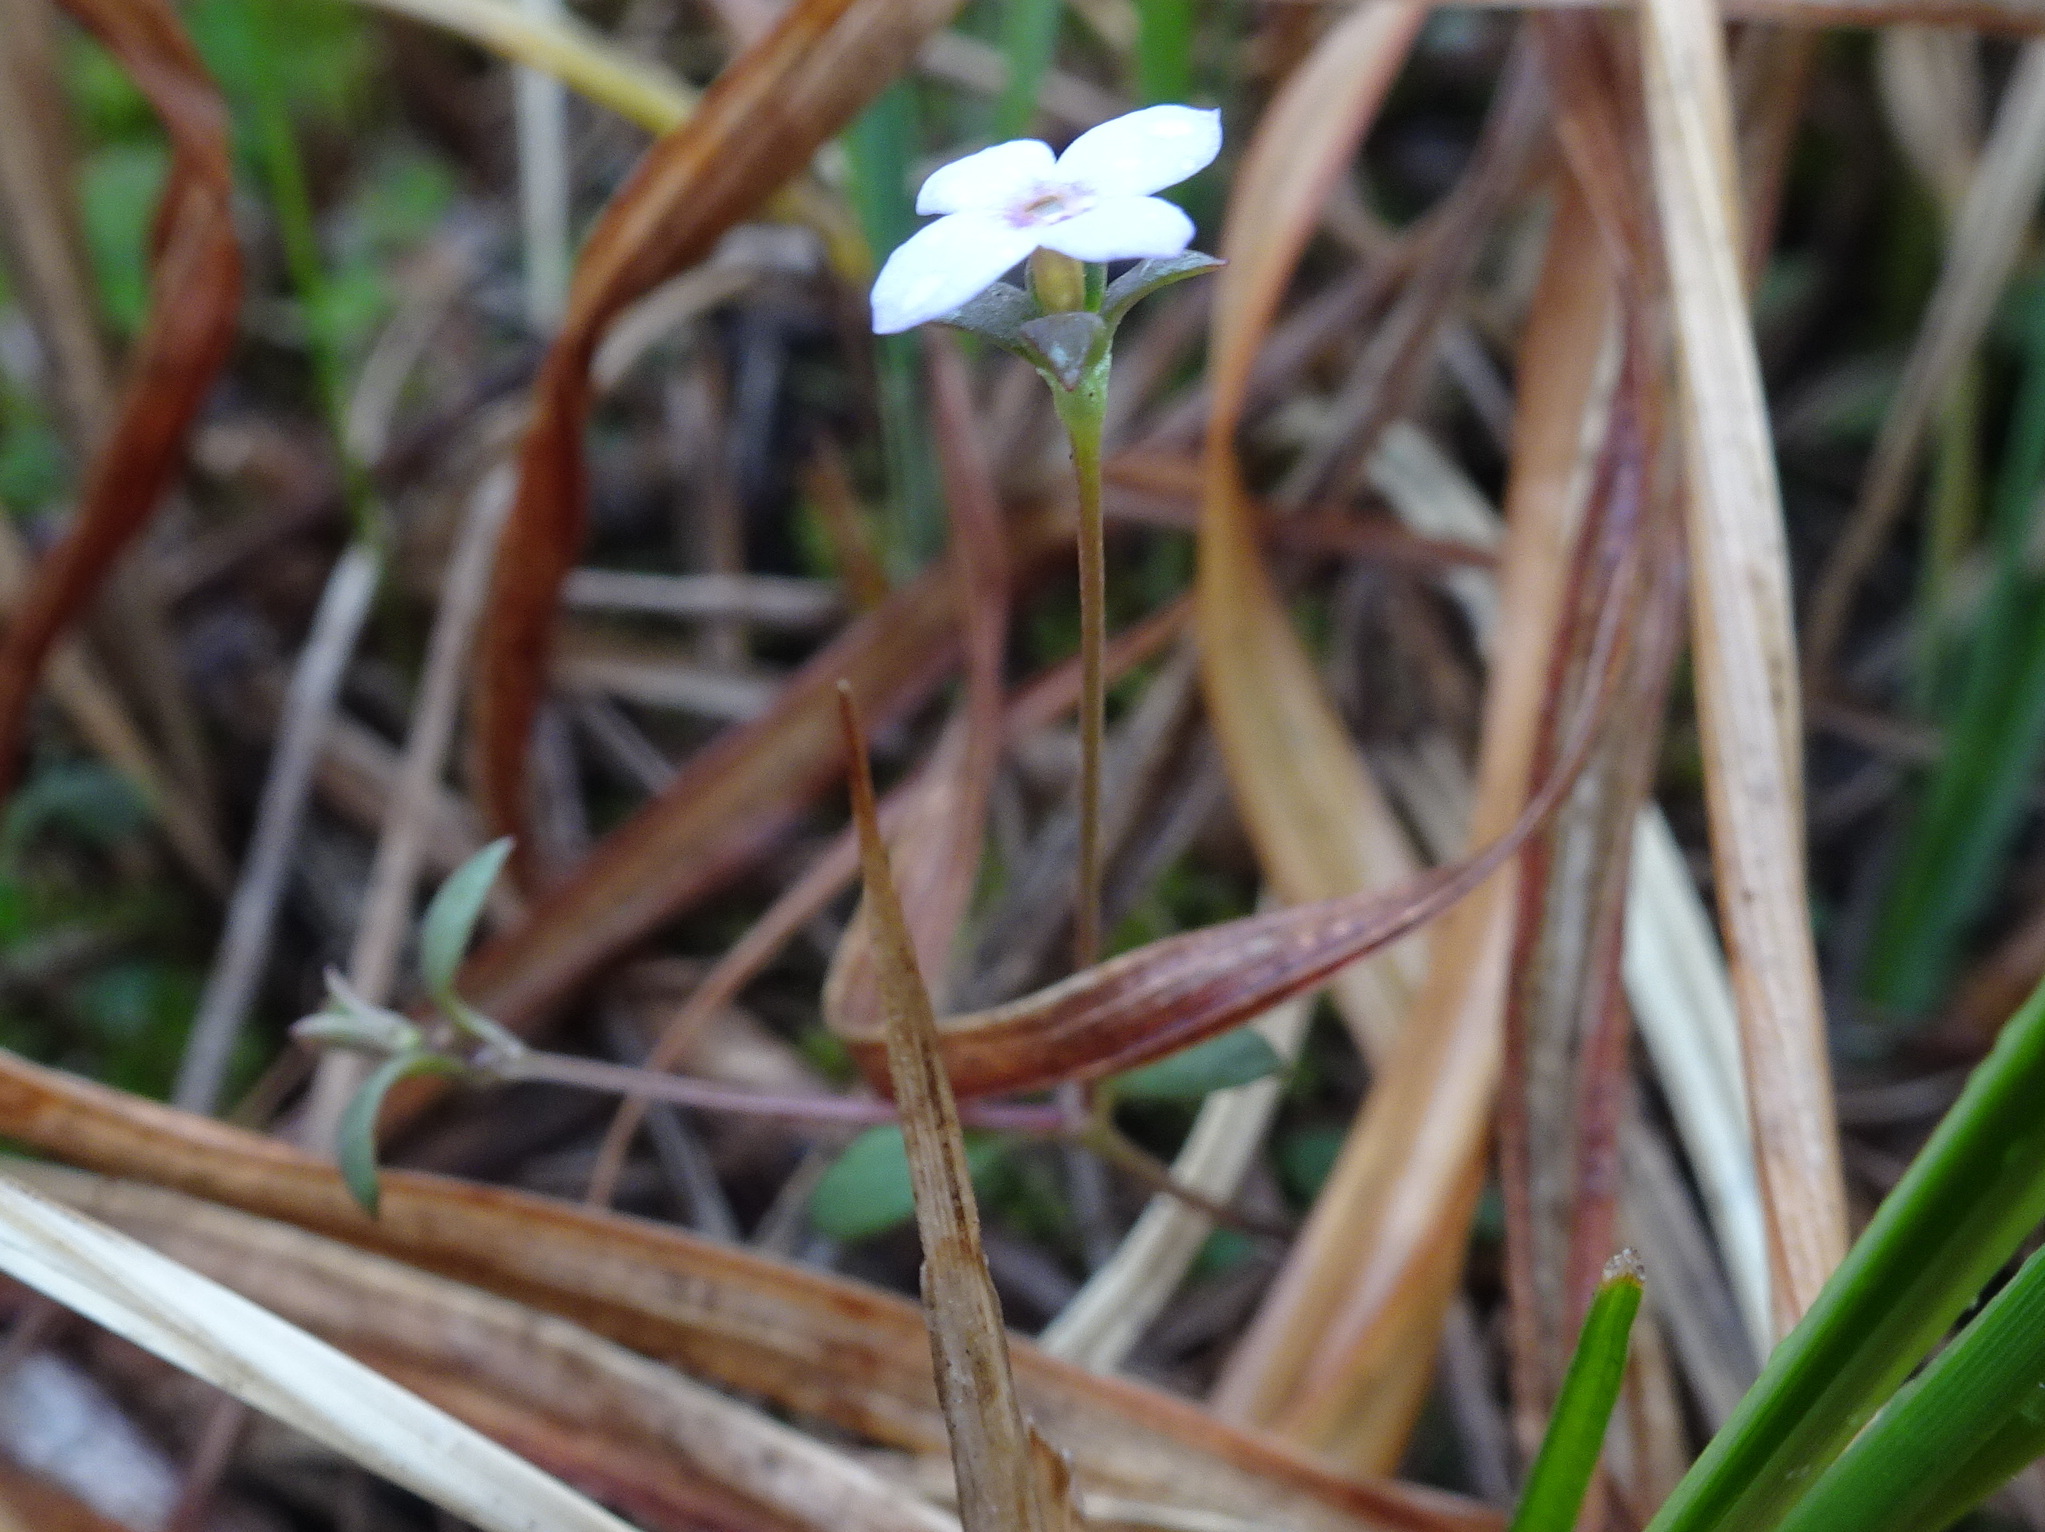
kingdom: Plantae
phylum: Tracheophyta
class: Magnoliopsida
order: Gentianales
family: Rubiaceae
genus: Houstonia
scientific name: Houstonia pusilla
